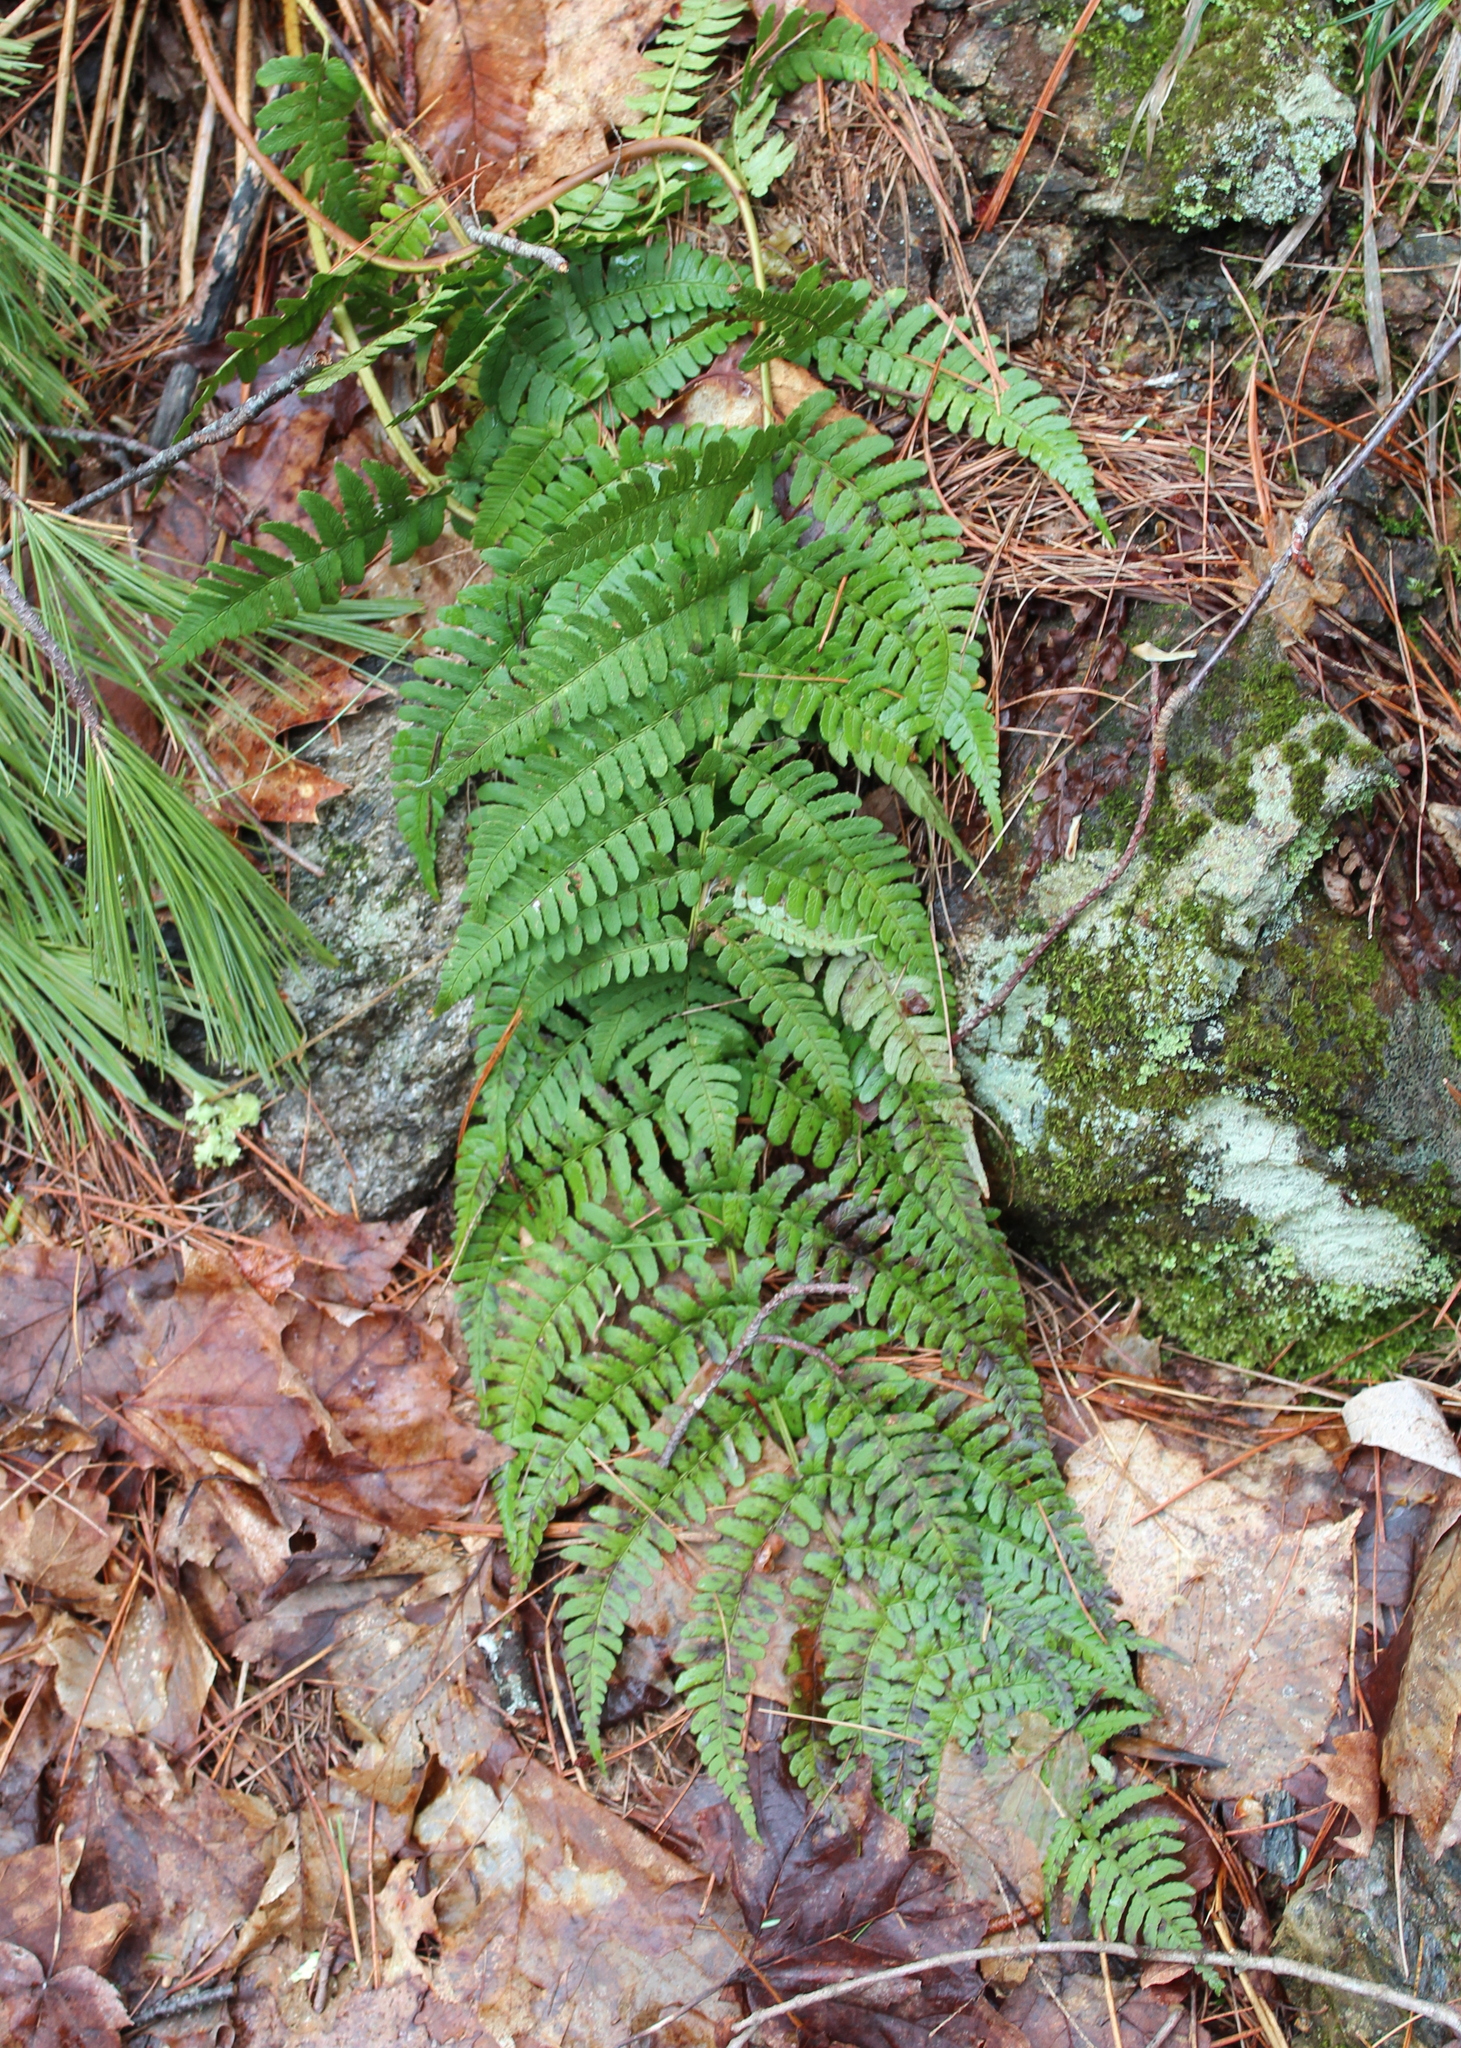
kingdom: Plantae
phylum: Tracheophyta
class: Polypodiopsida
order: Polypodiales
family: Dryopteridaceae
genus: Dryopteris
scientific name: Dryopteris marginalis
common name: Marginal wood fern
